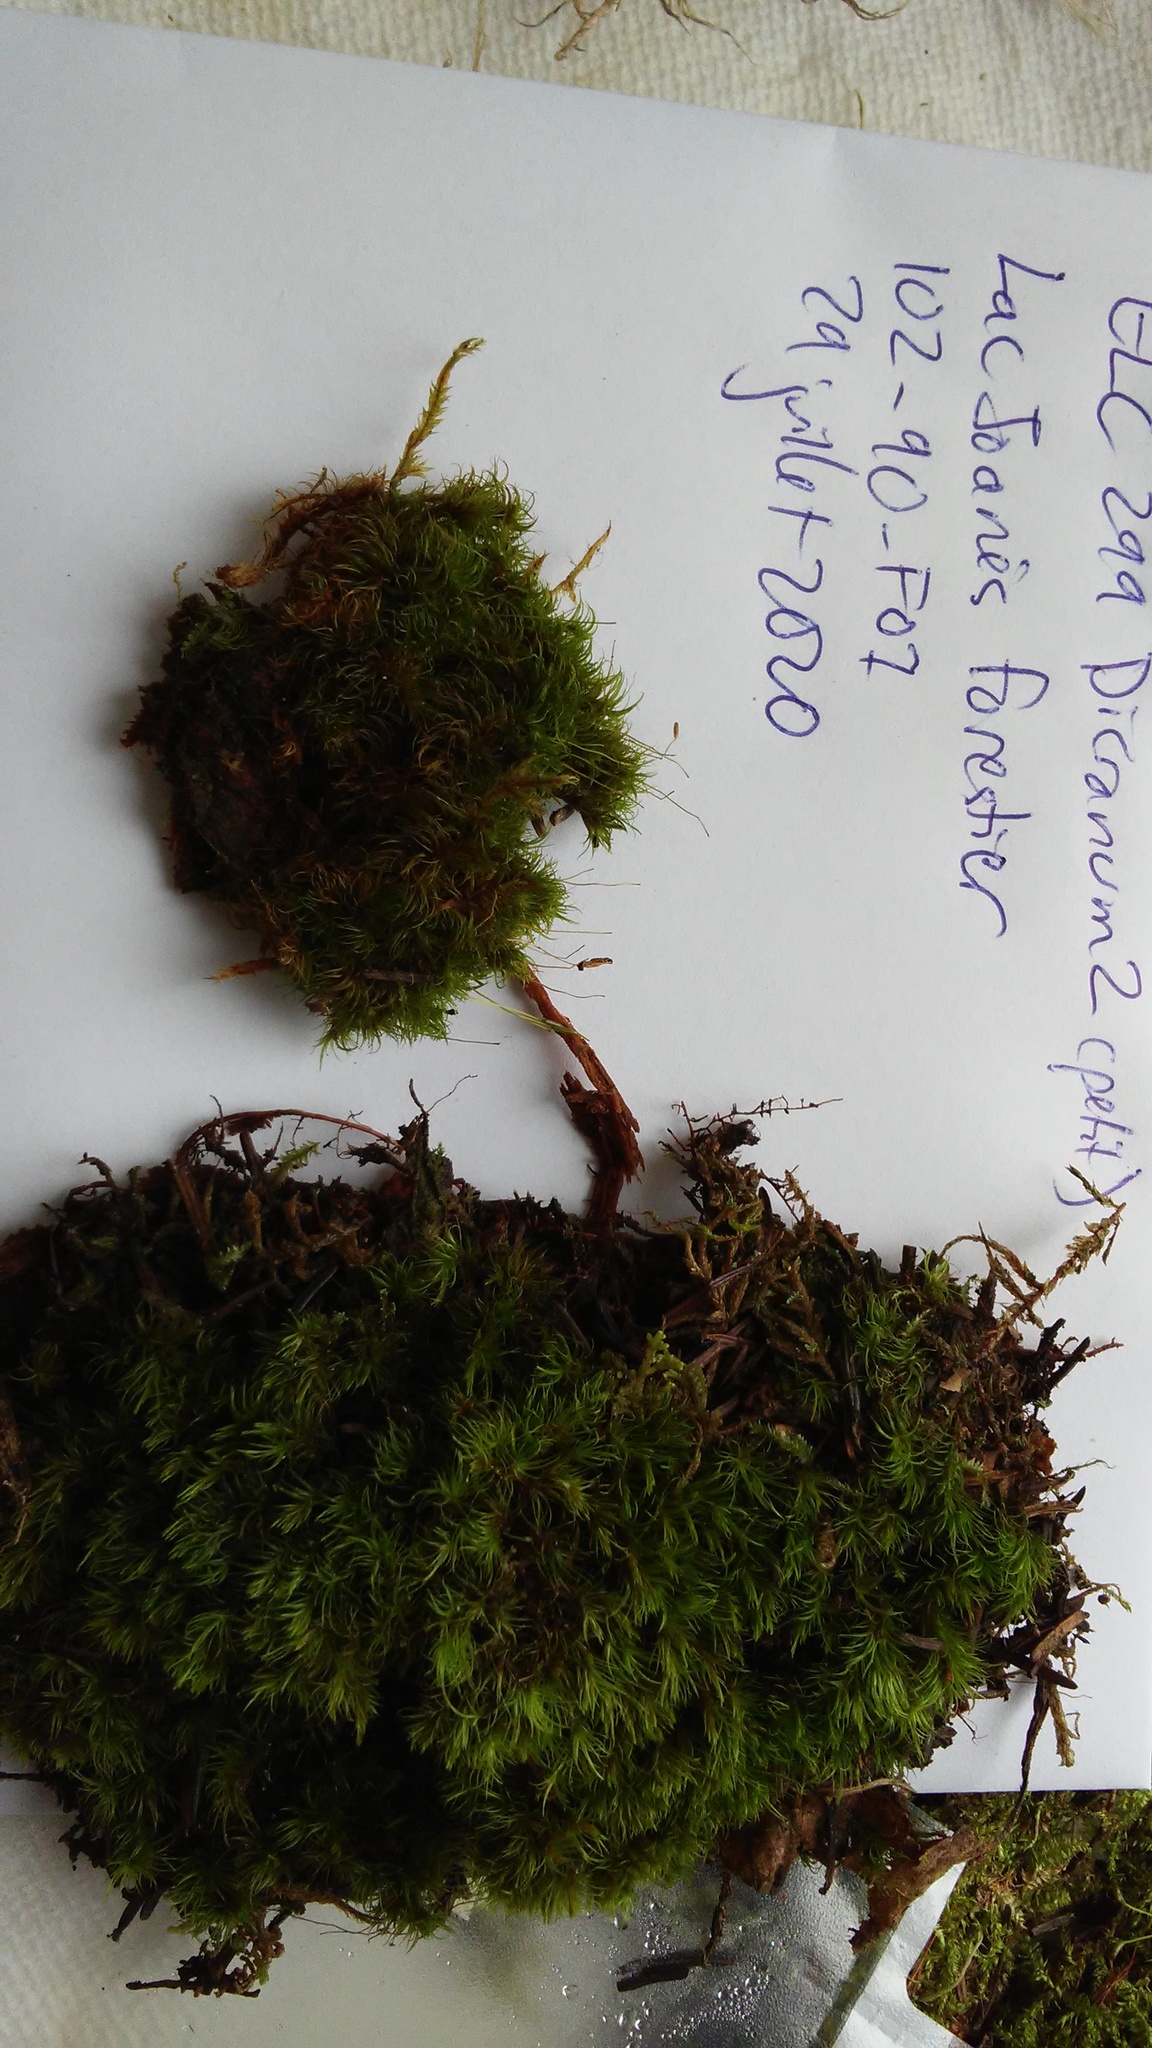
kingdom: Plantae
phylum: Bryophyta
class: Bryopsida
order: Dicranales
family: Dicranaceae
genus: Orthodicranum
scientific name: Orthodicranum montanum
